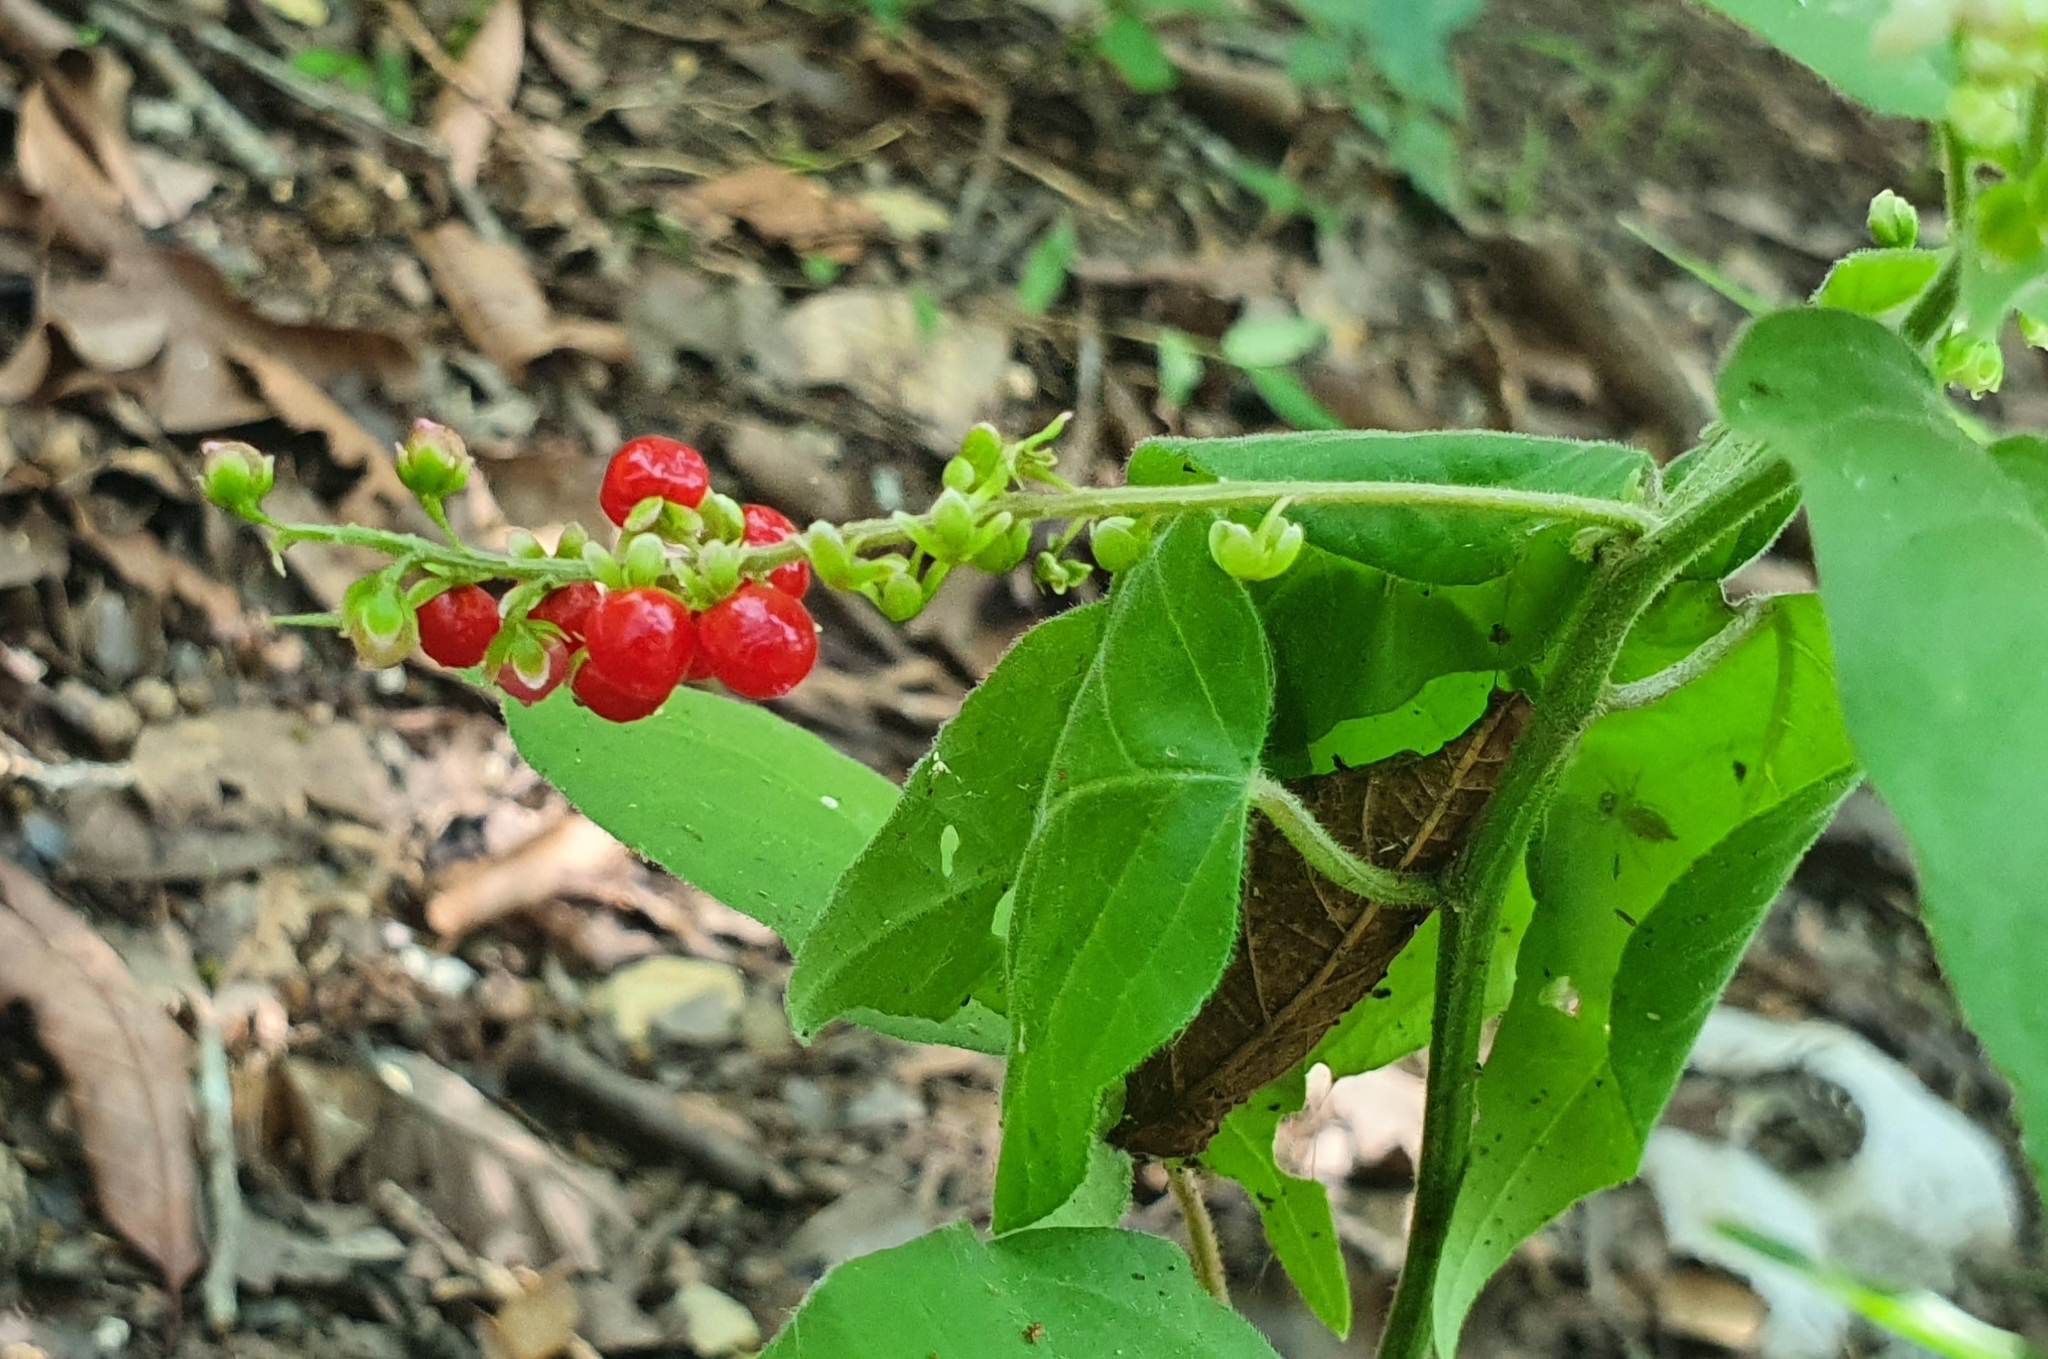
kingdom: Plantae
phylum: Tracheophyta
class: Magnoliopsida
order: Caryophyllales
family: Phytolaccaceae
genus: Rivina
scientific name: Rivina humilis
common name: Rougeplant
